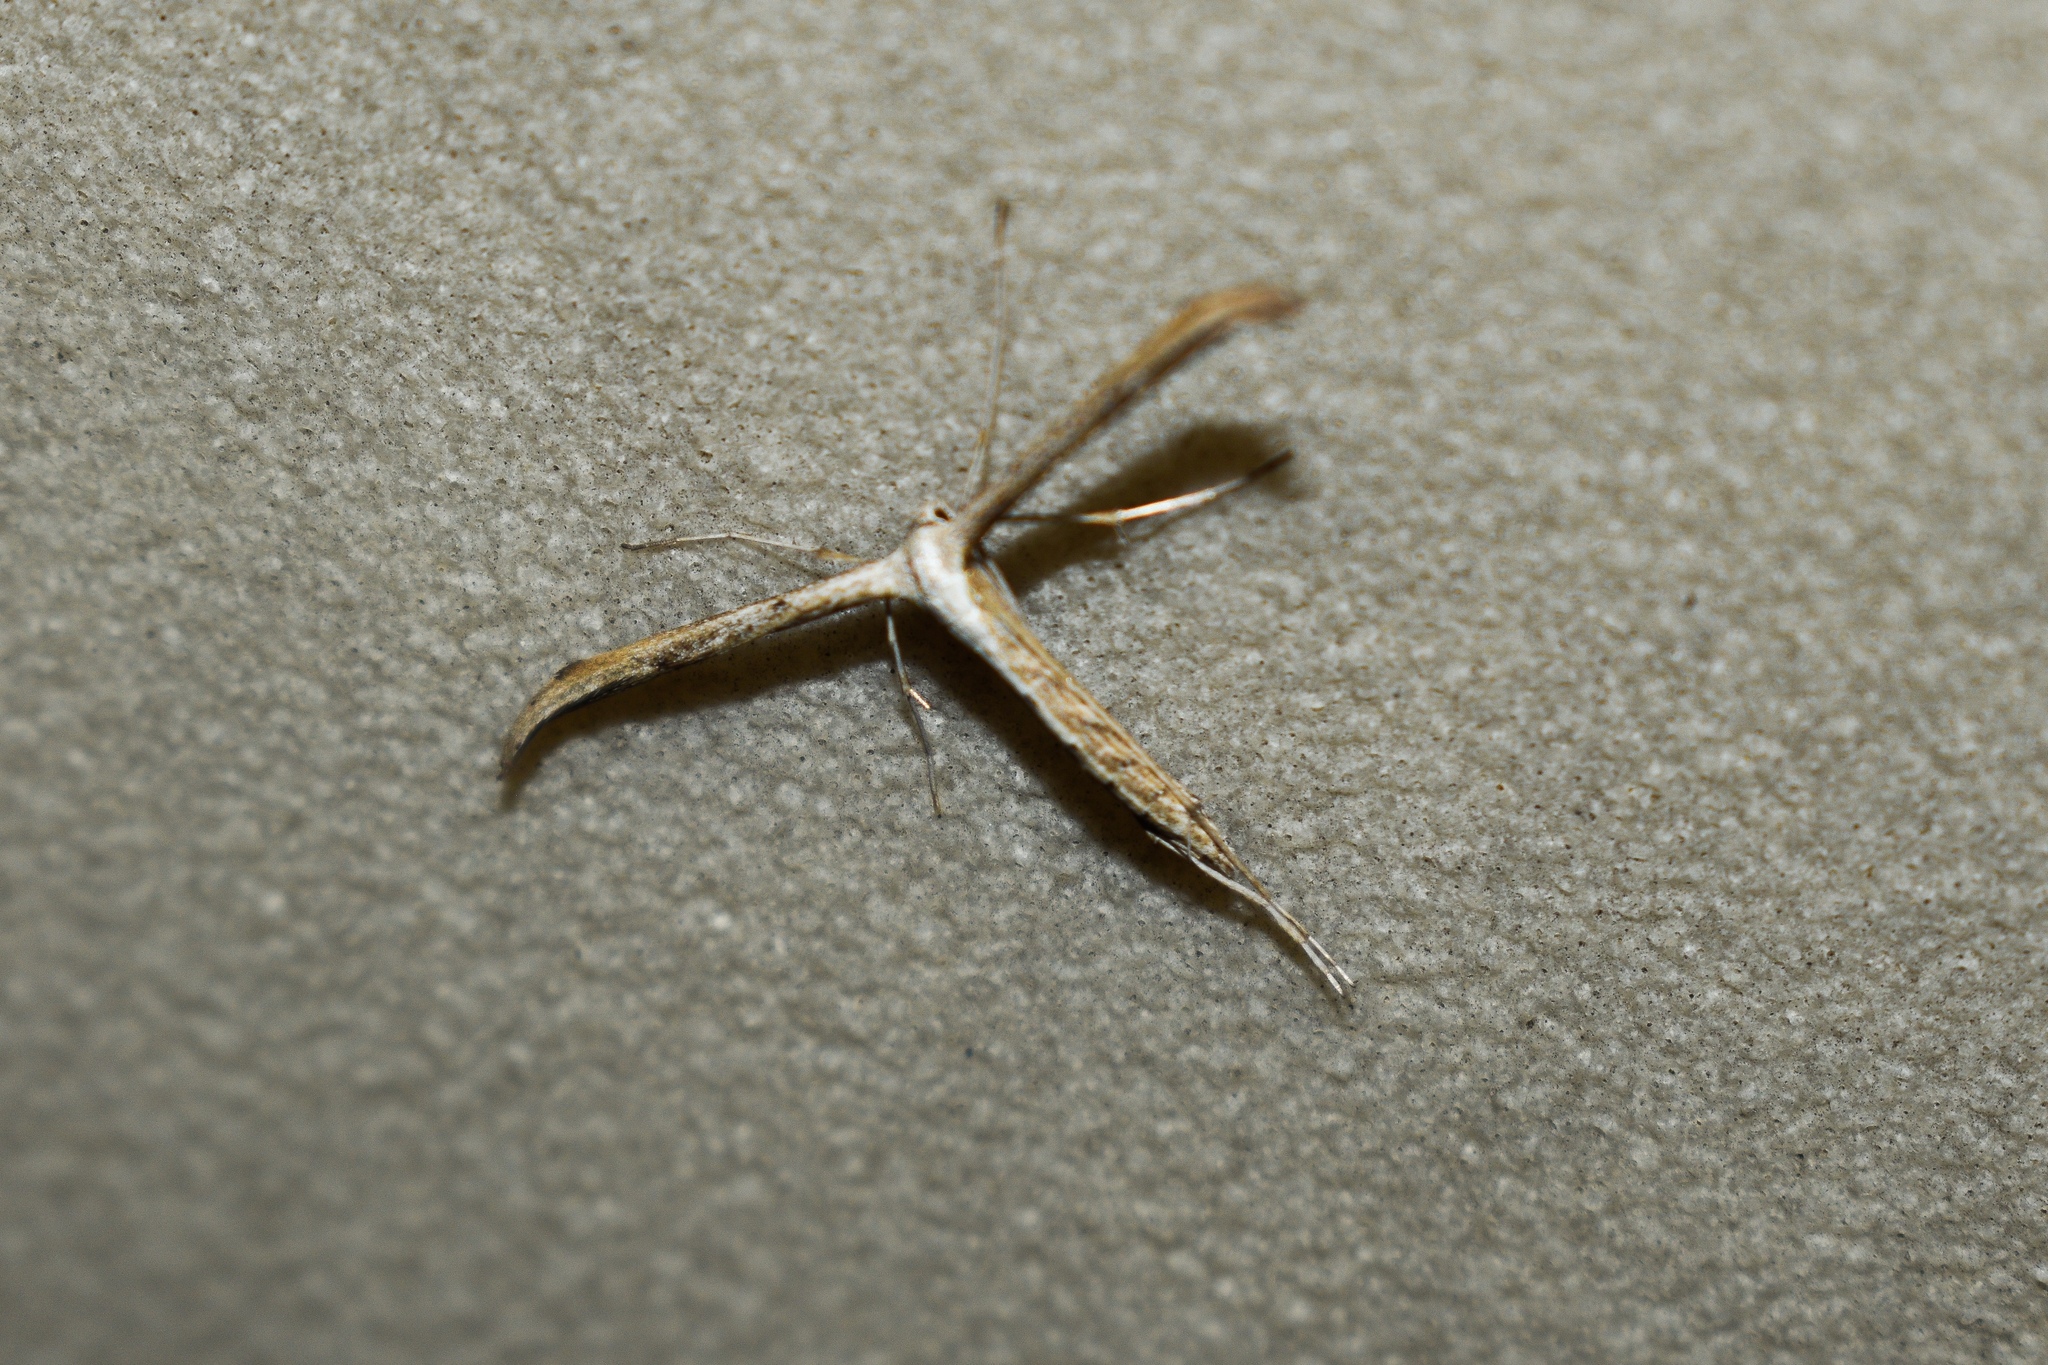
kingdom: Animalia
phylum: Arthropoda
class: Insecta
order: Lepidoptera
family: Pterophoridae
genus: Emmelina
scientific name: Emmelina monodactyla
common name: Common plume
